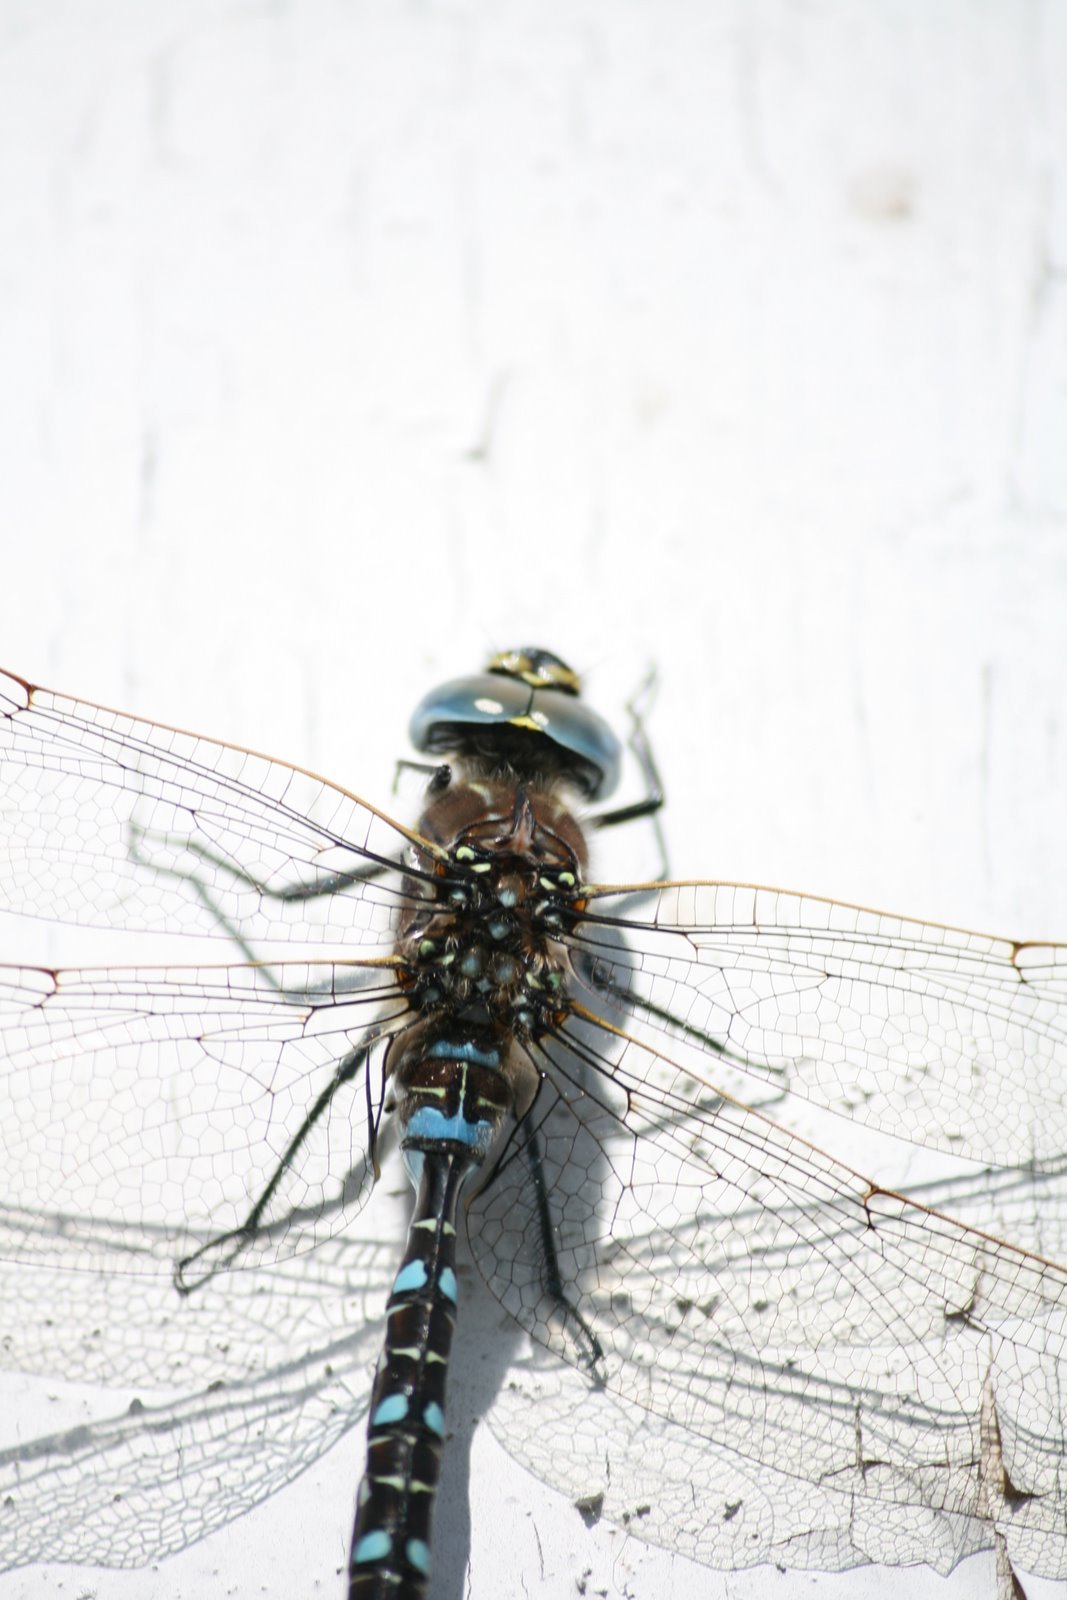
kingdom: Animalia
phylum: Arthropoda
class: Insecta
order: Odonata
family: Aeshnidae
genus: Aeshna
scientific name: Aeshna juncea
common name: Moorland hawker
